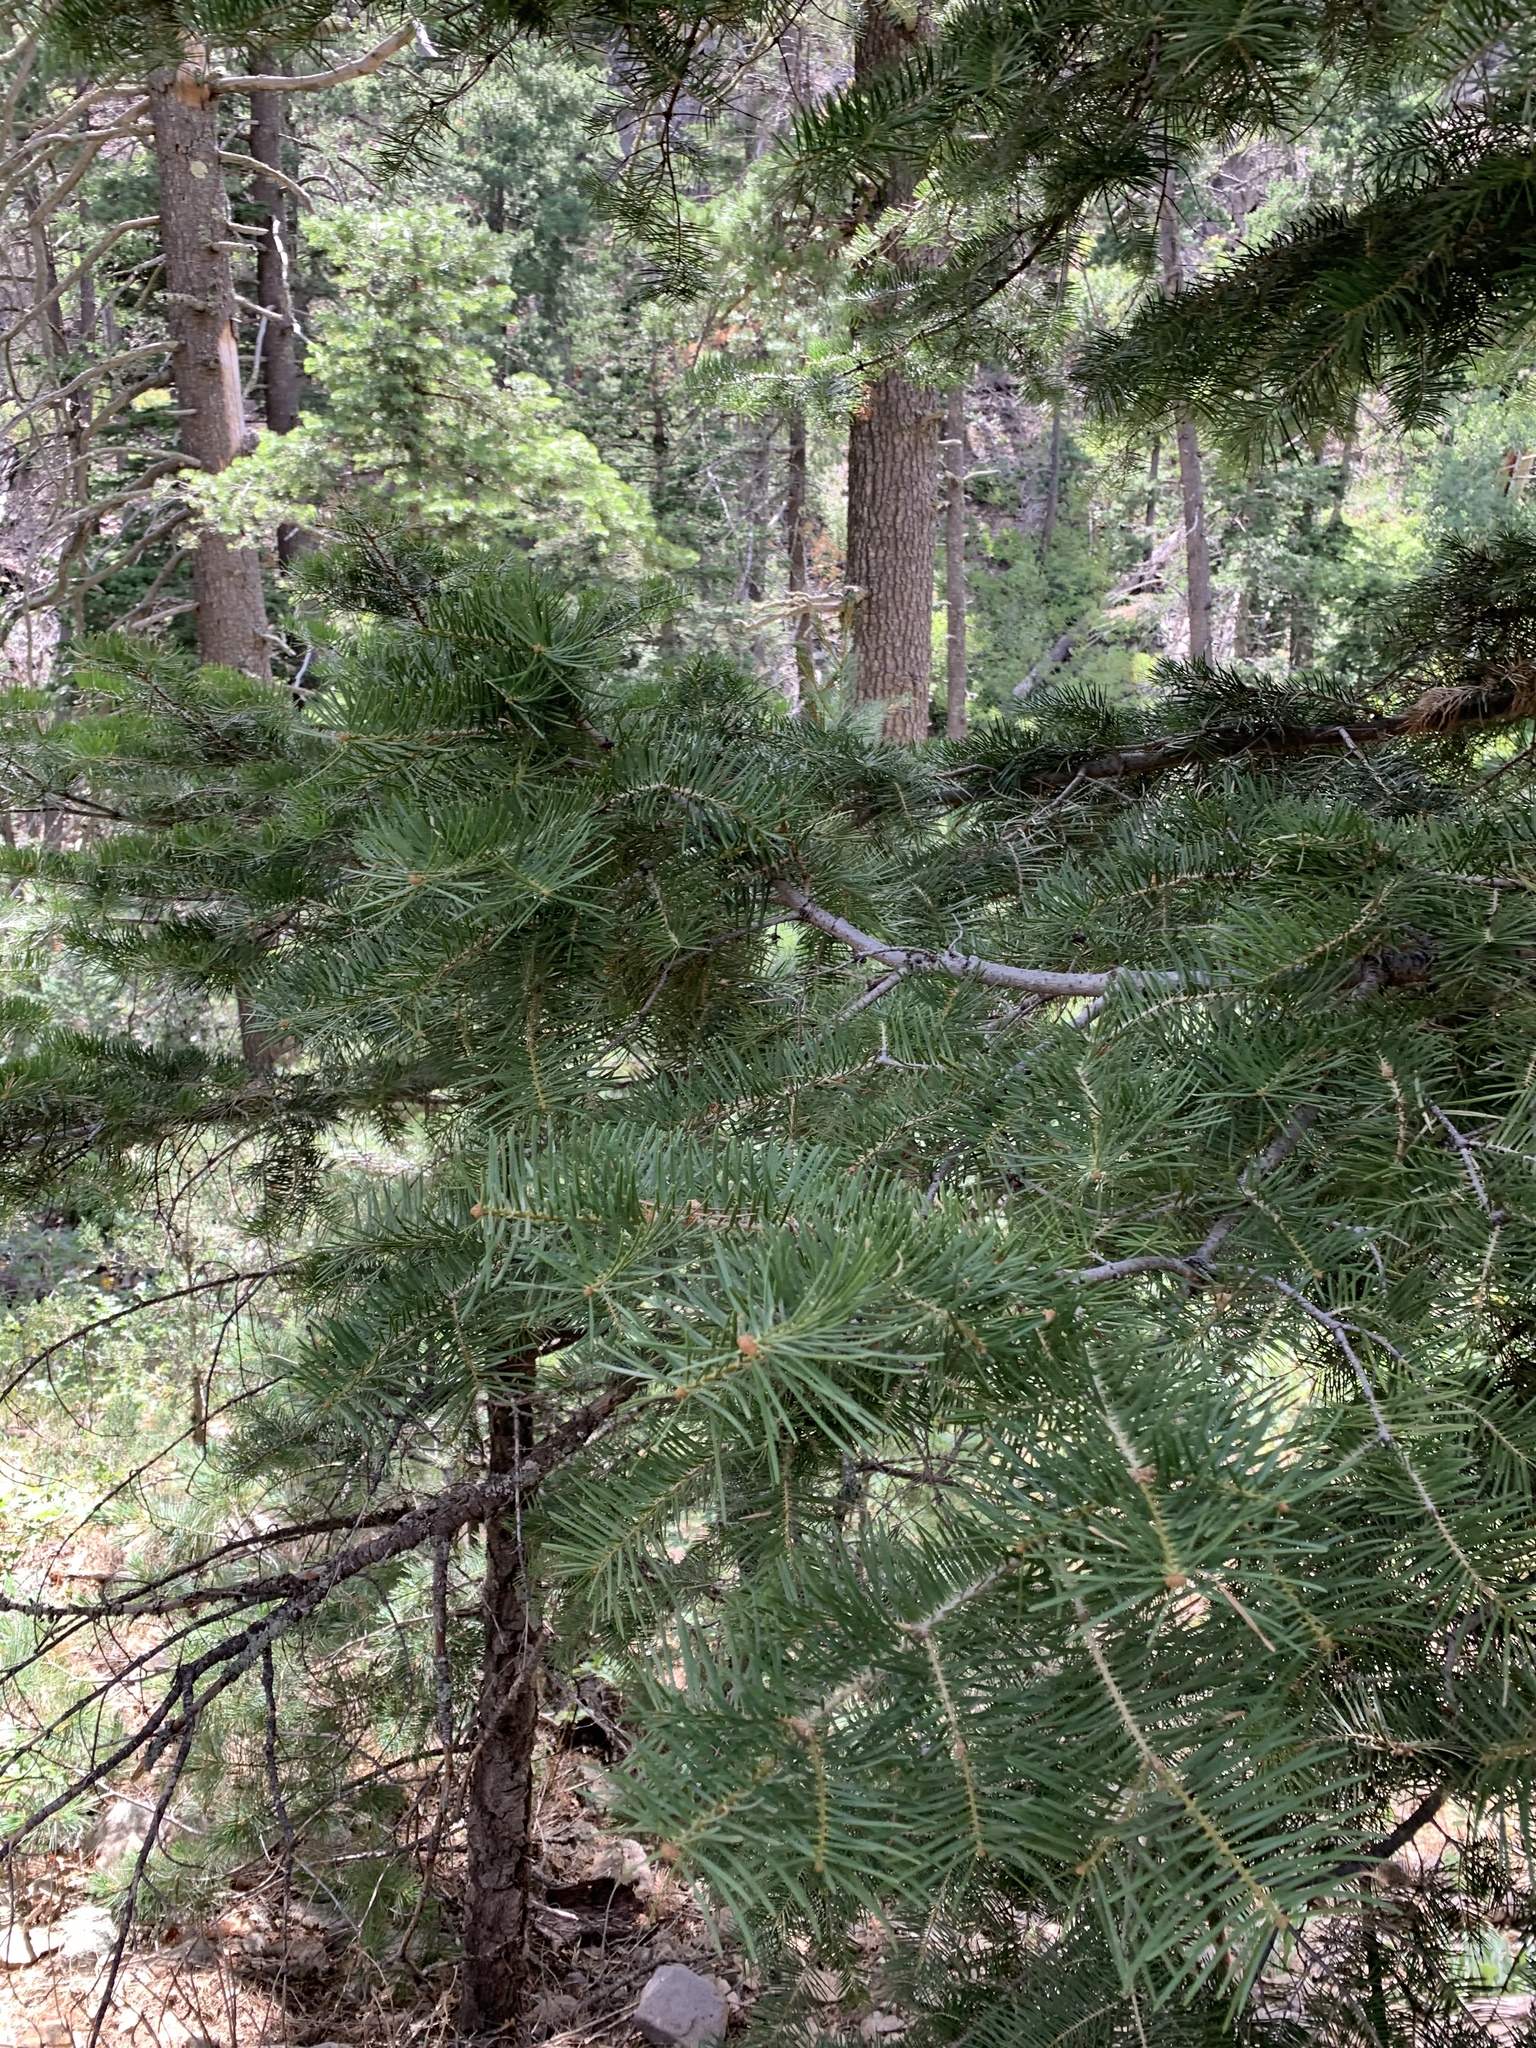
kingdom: Plantae
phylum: Tracheophyta
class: Pinopsida
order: Pinales
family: Pinaceae
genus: Abies
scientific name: Abies concolor
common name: Colorado fir
